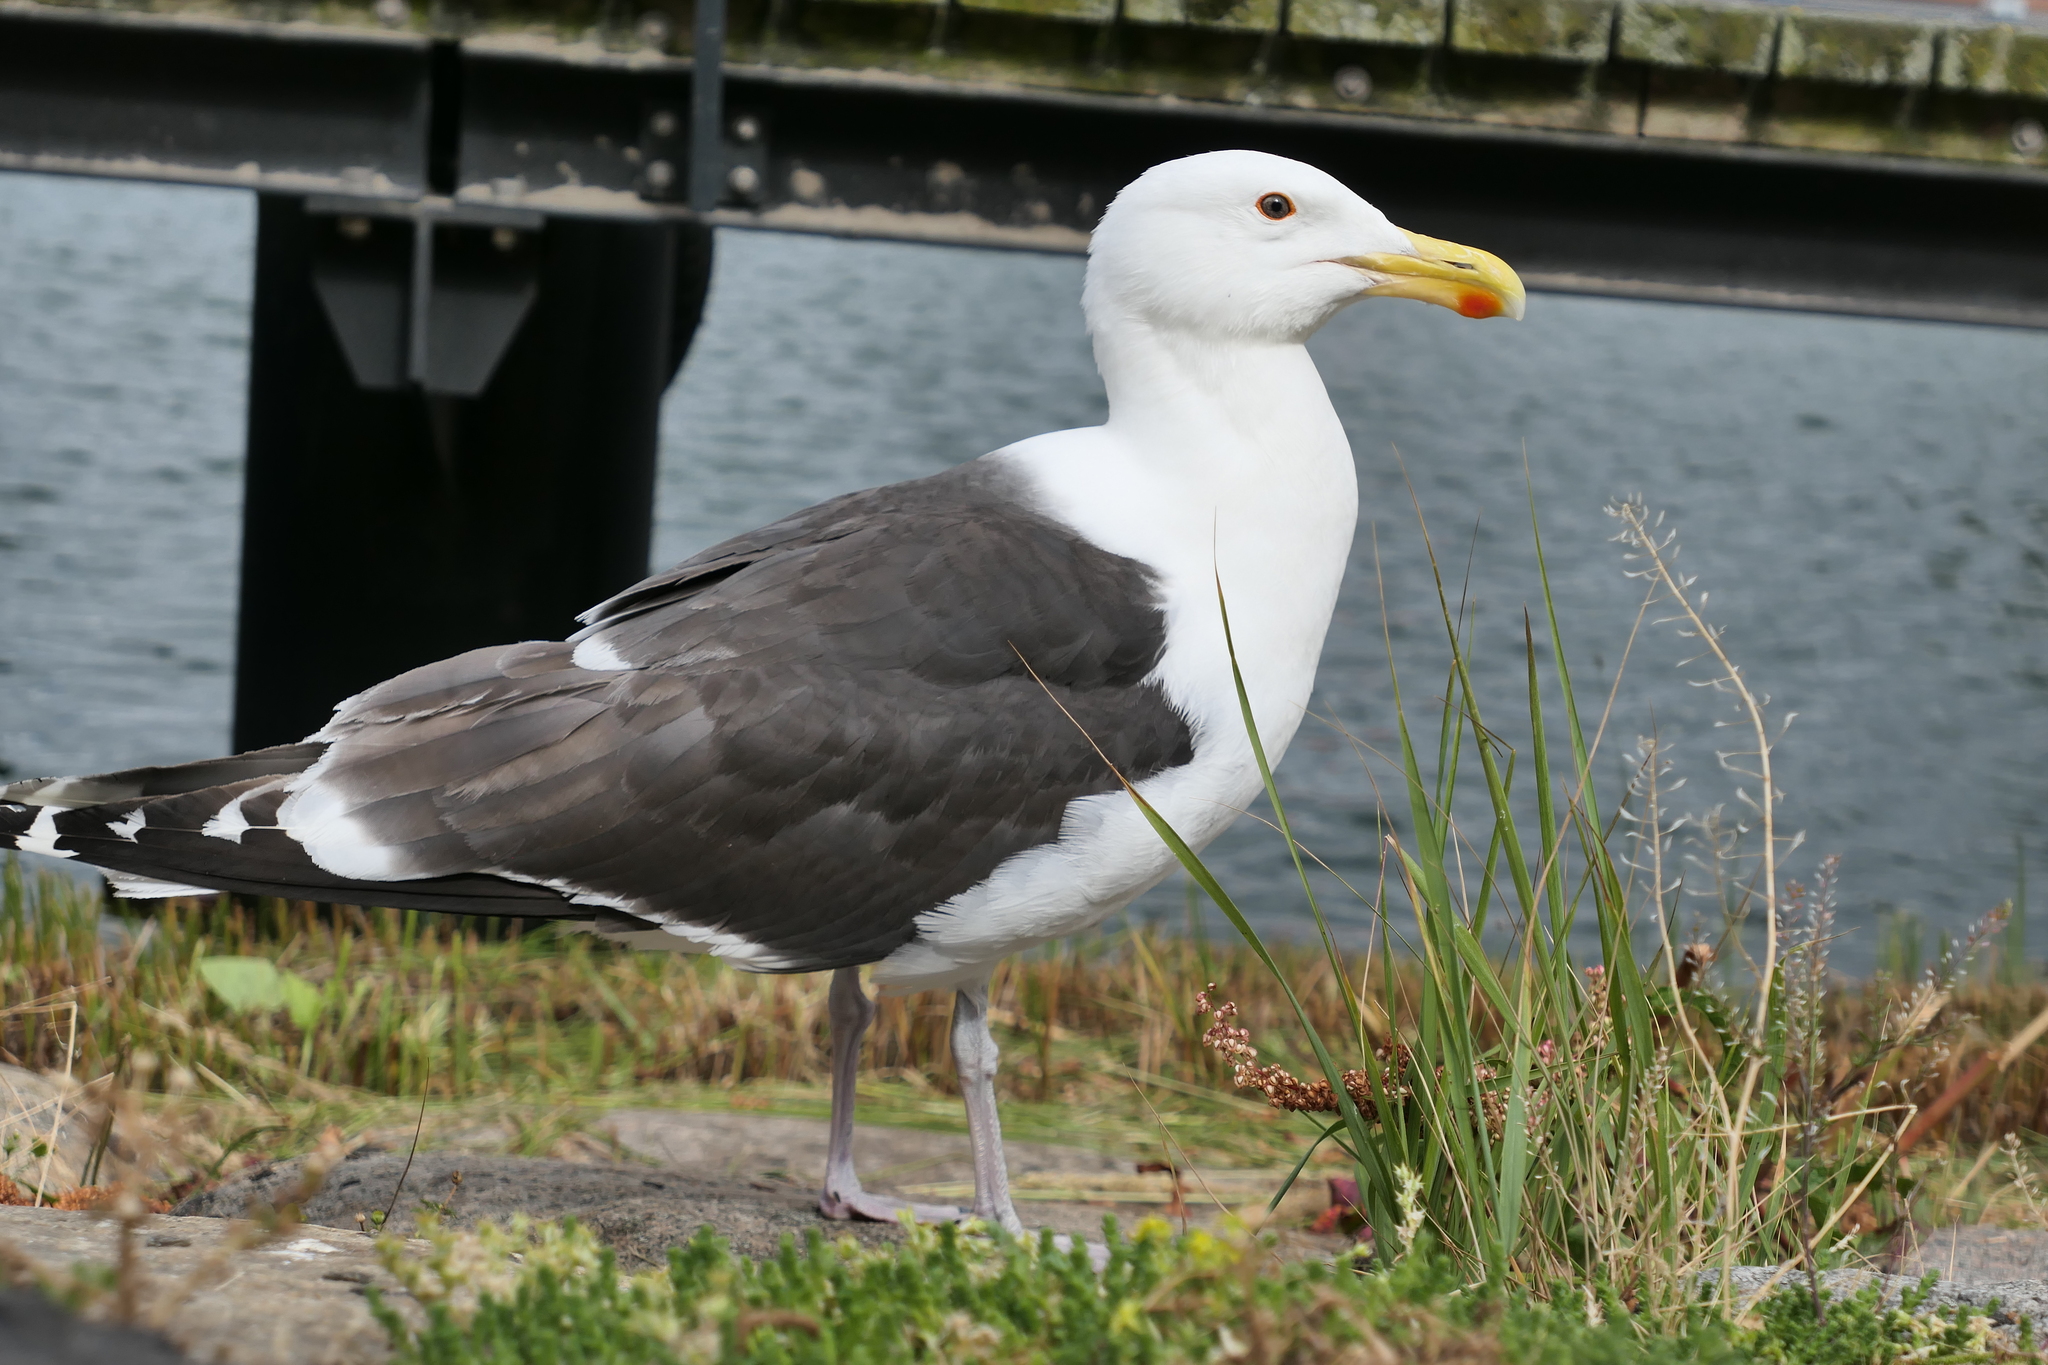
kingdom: Animalia
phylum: Chordata
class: Aves
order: Charadriiformes
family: Laridae
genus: Larus
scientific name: Larus marinus
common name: Great black-backed gull
